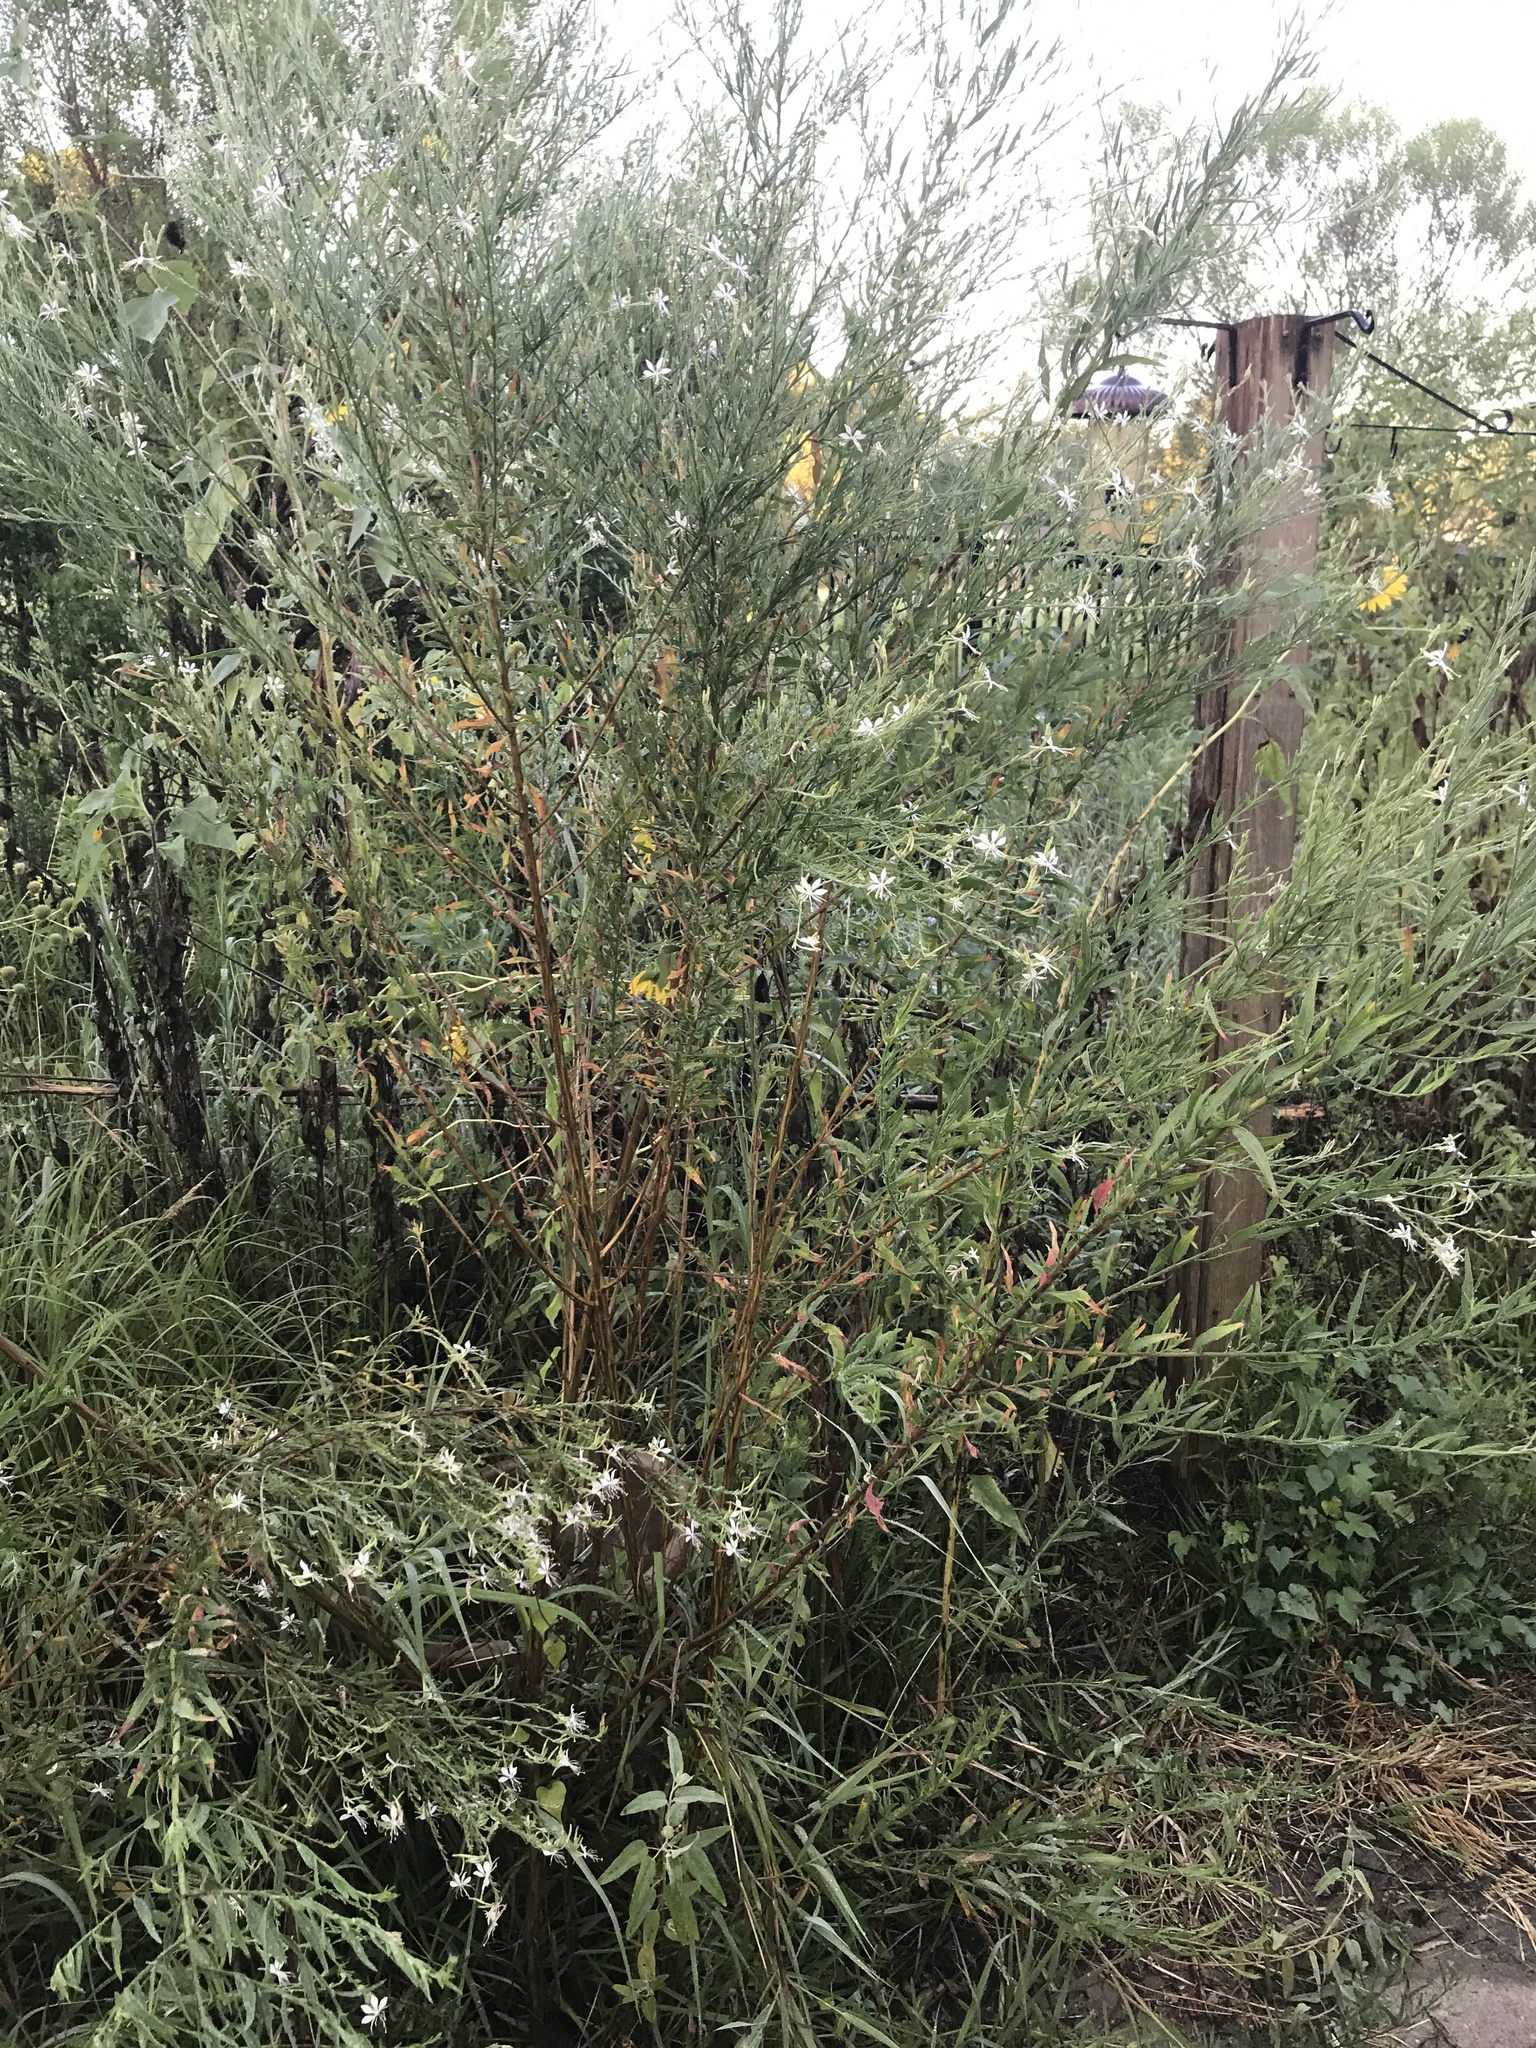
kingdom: Plantae
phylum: Tracheophyta
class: Magnoliopsida
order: Myrtales
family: Onagraceae
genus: Oenothera
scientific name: Oenothera lindheimeri
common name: Lindheimer's beeblossom
